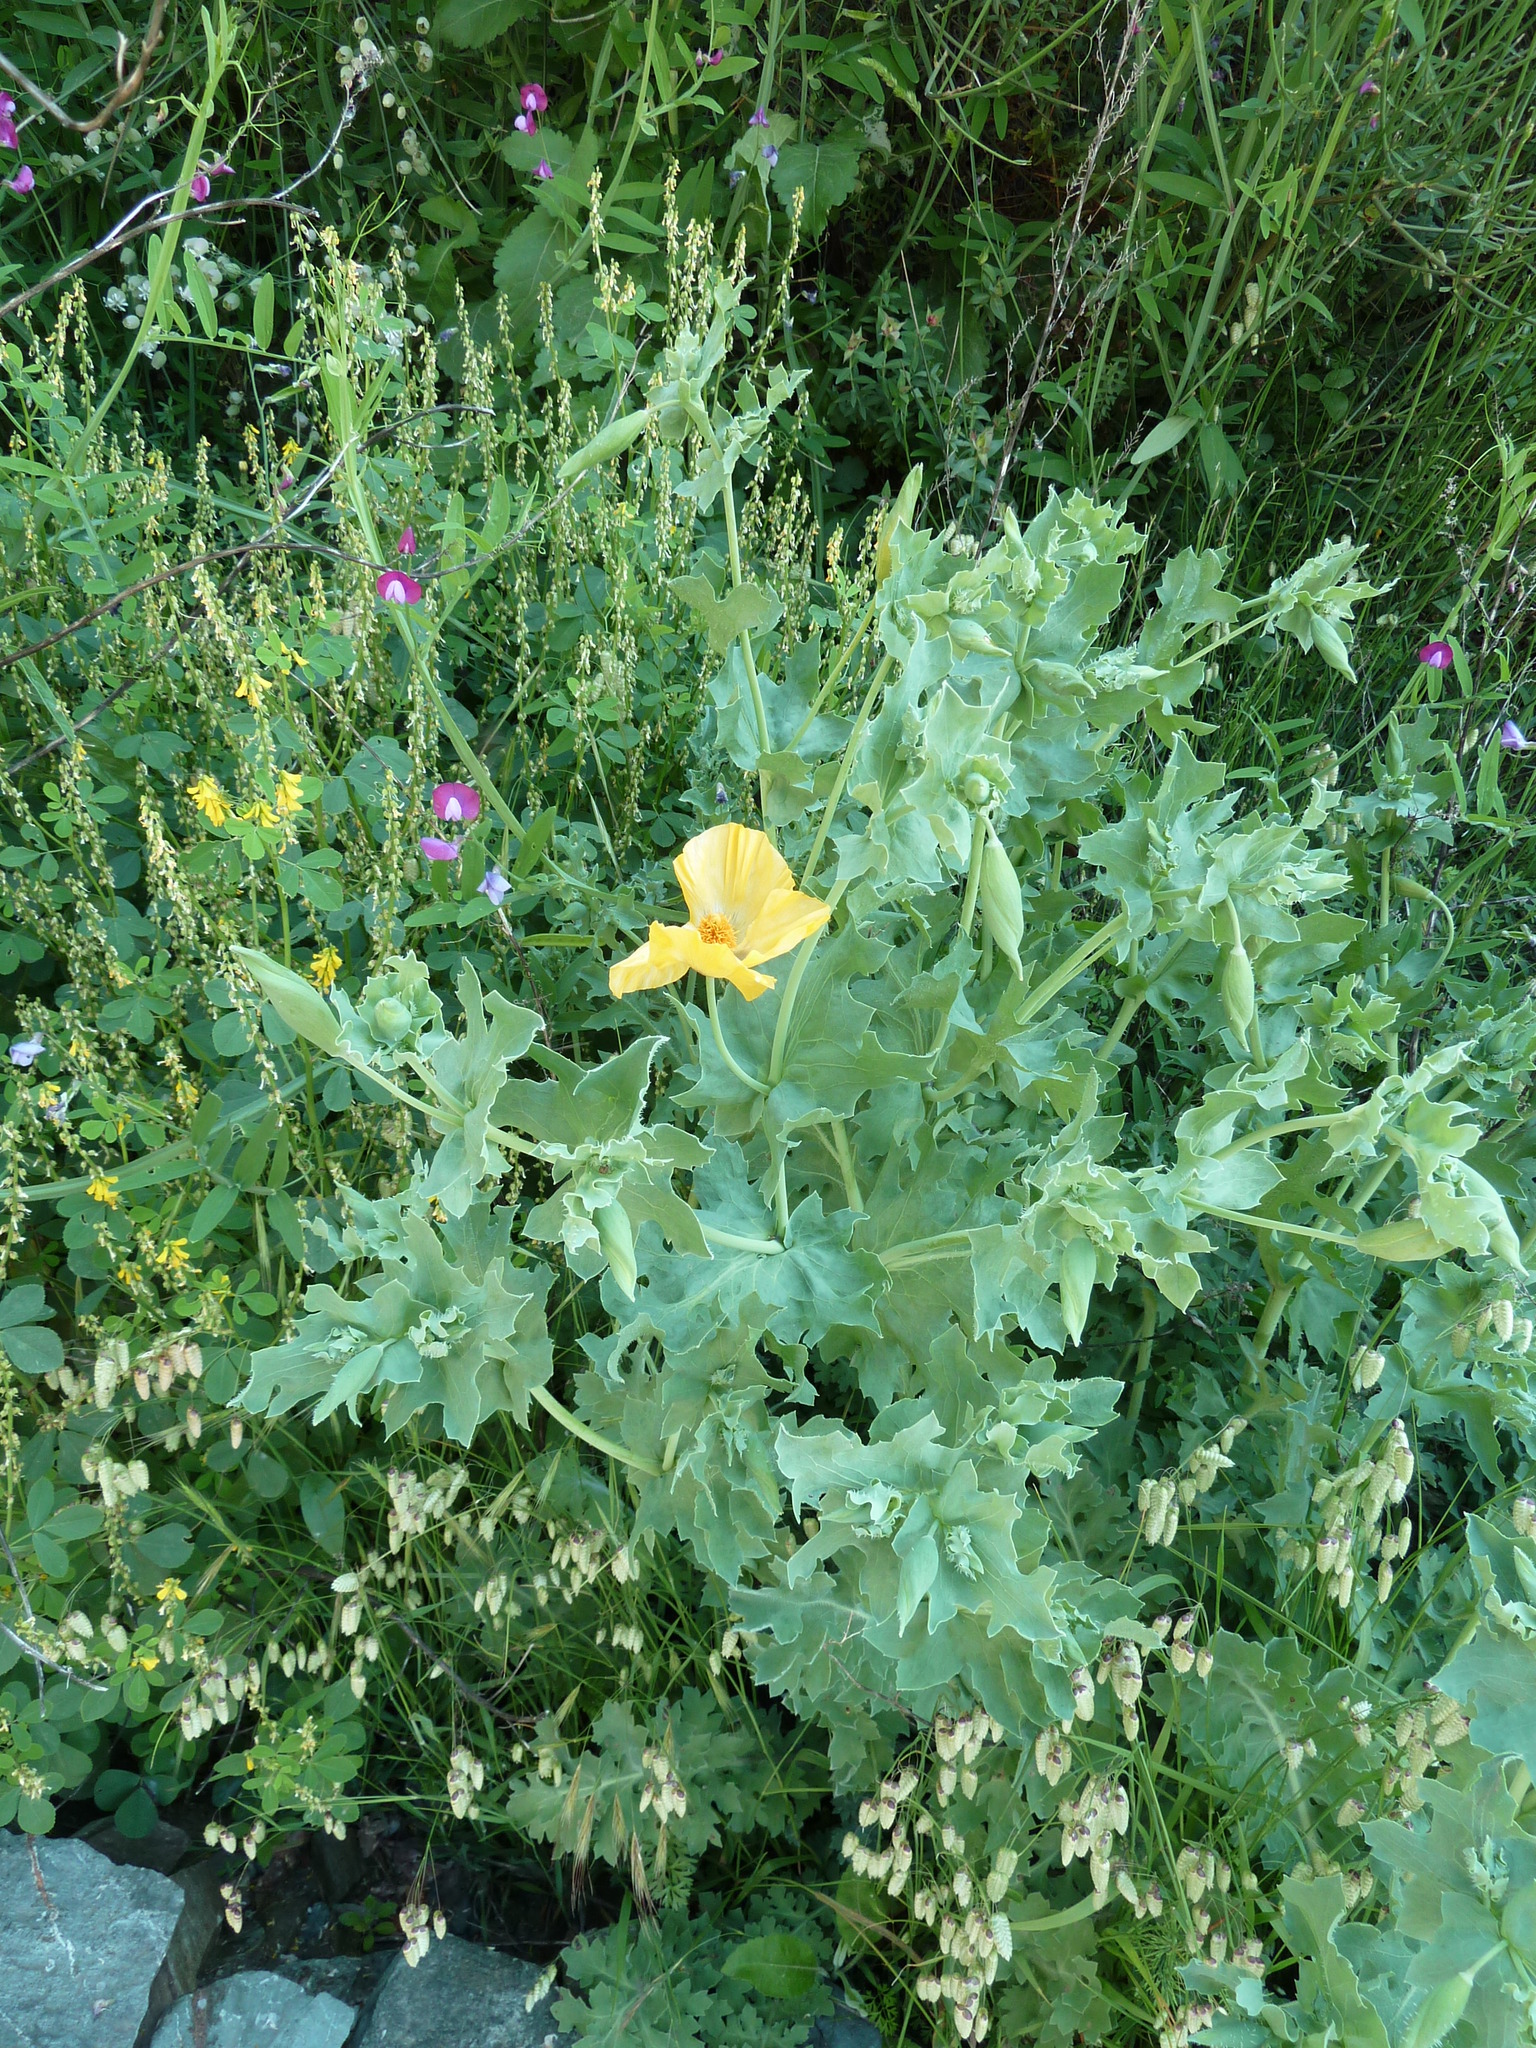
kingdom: Plantae
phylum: Tracheophyta
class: Magnoliopsida
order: Ranunculales
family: Papaveraceae
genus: Glaucium
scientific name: Glaucium flavum
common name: Yellow horned-poppy
